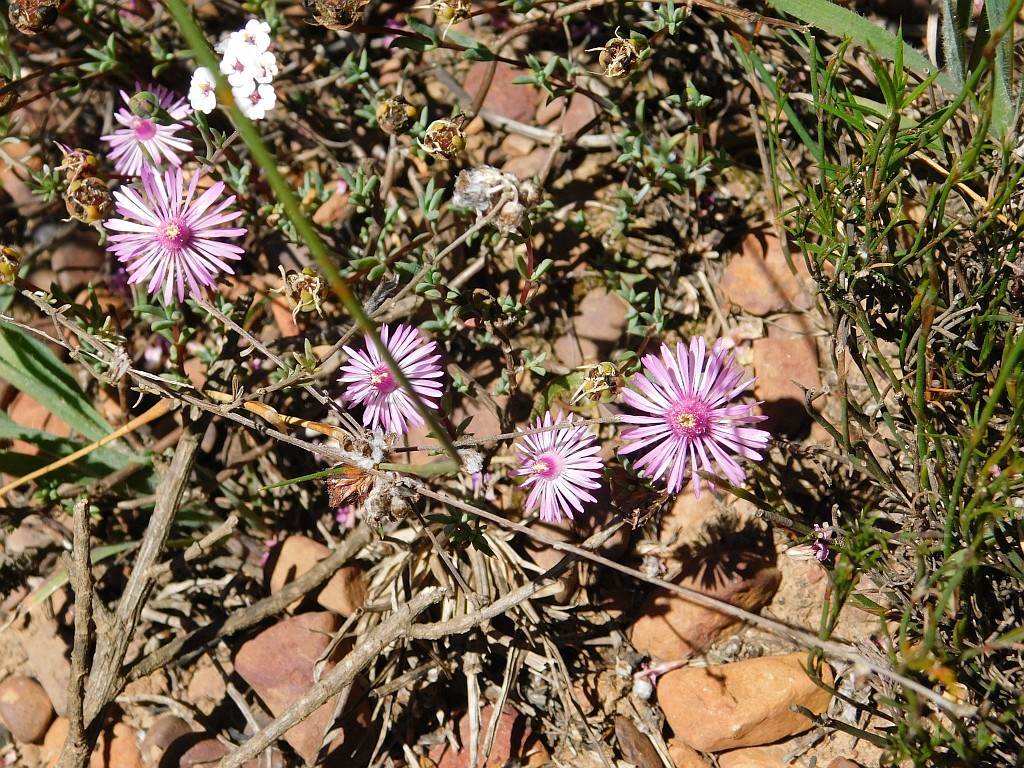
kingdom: Plantae
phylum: Tracheophyta
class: Magnoliopsida
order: Caryophyllales
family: Aizoaceae
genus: Lampranthus
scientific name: Lampranthus elegans
